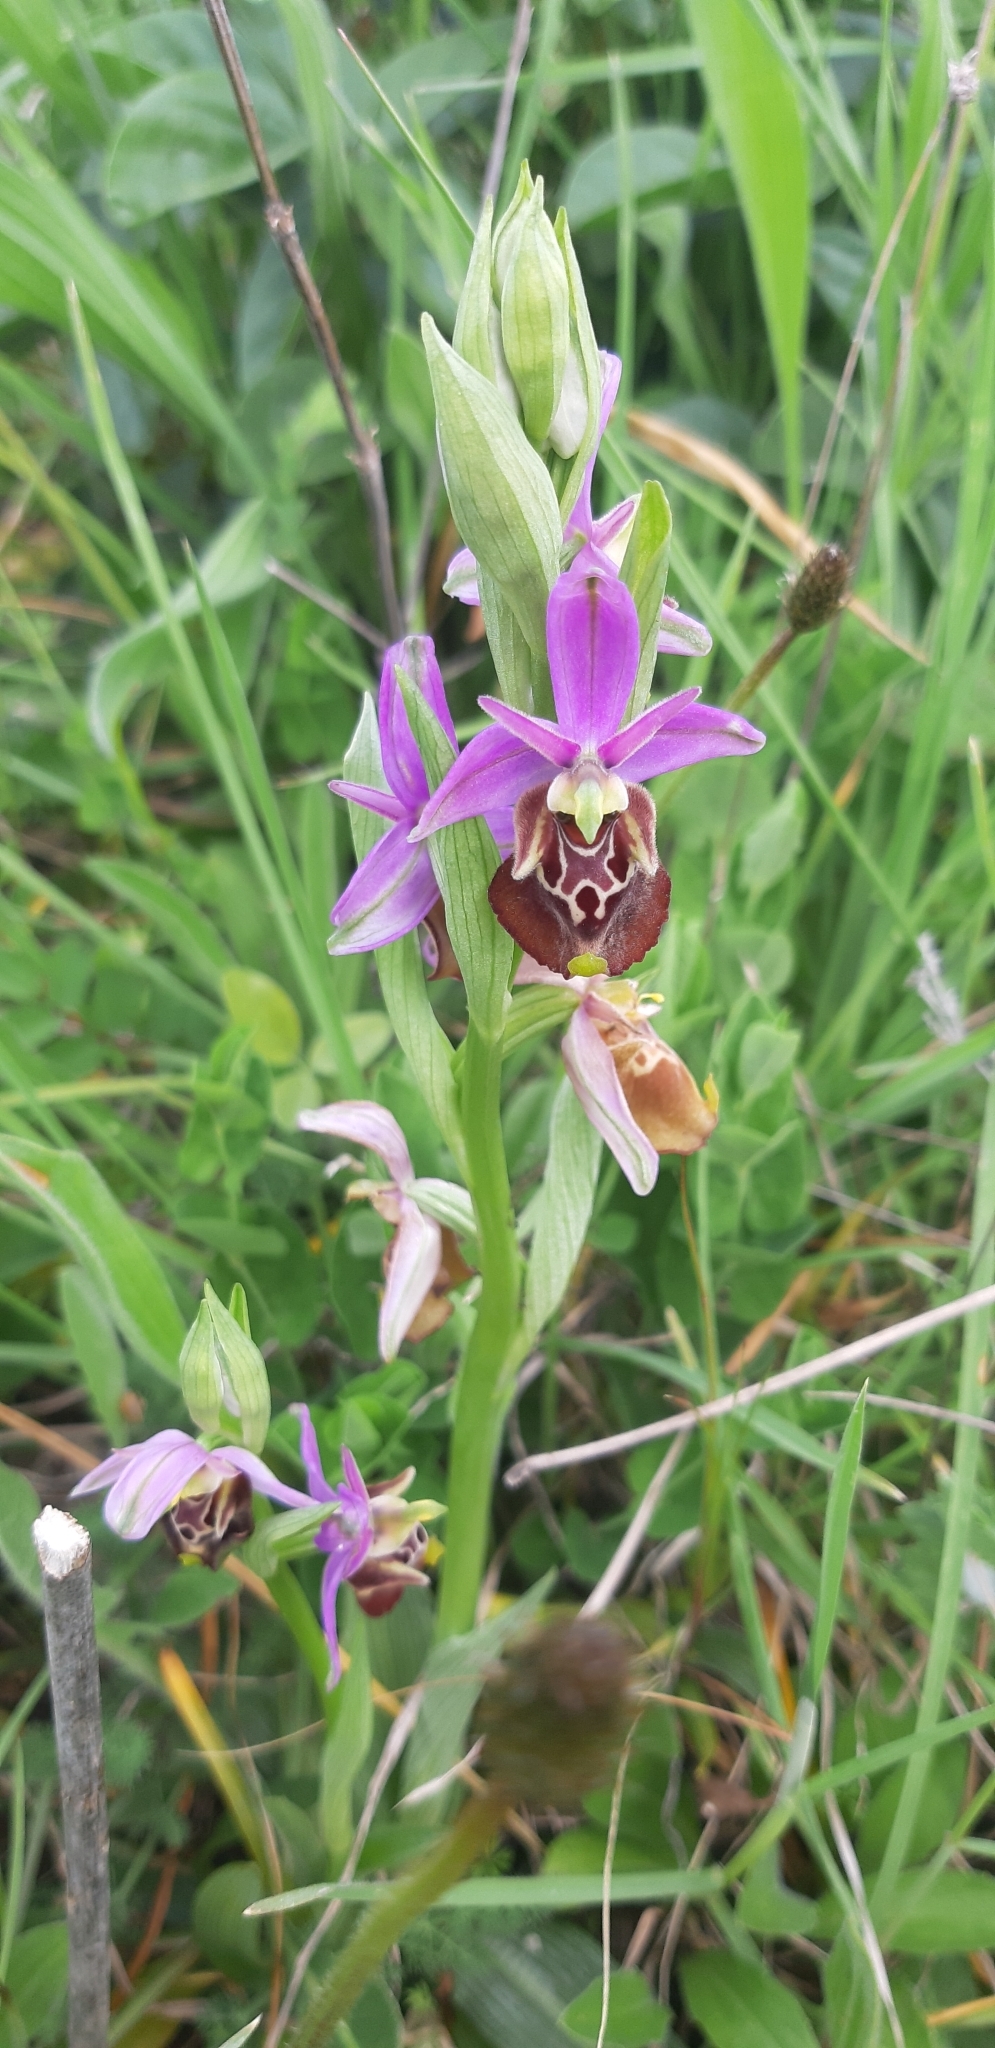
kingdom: Plantae
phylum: Tracheophyta
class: Liliopsida
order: Asparagales
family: Orchidaceae
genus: Ophrys
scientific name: Ophrys holosericea
